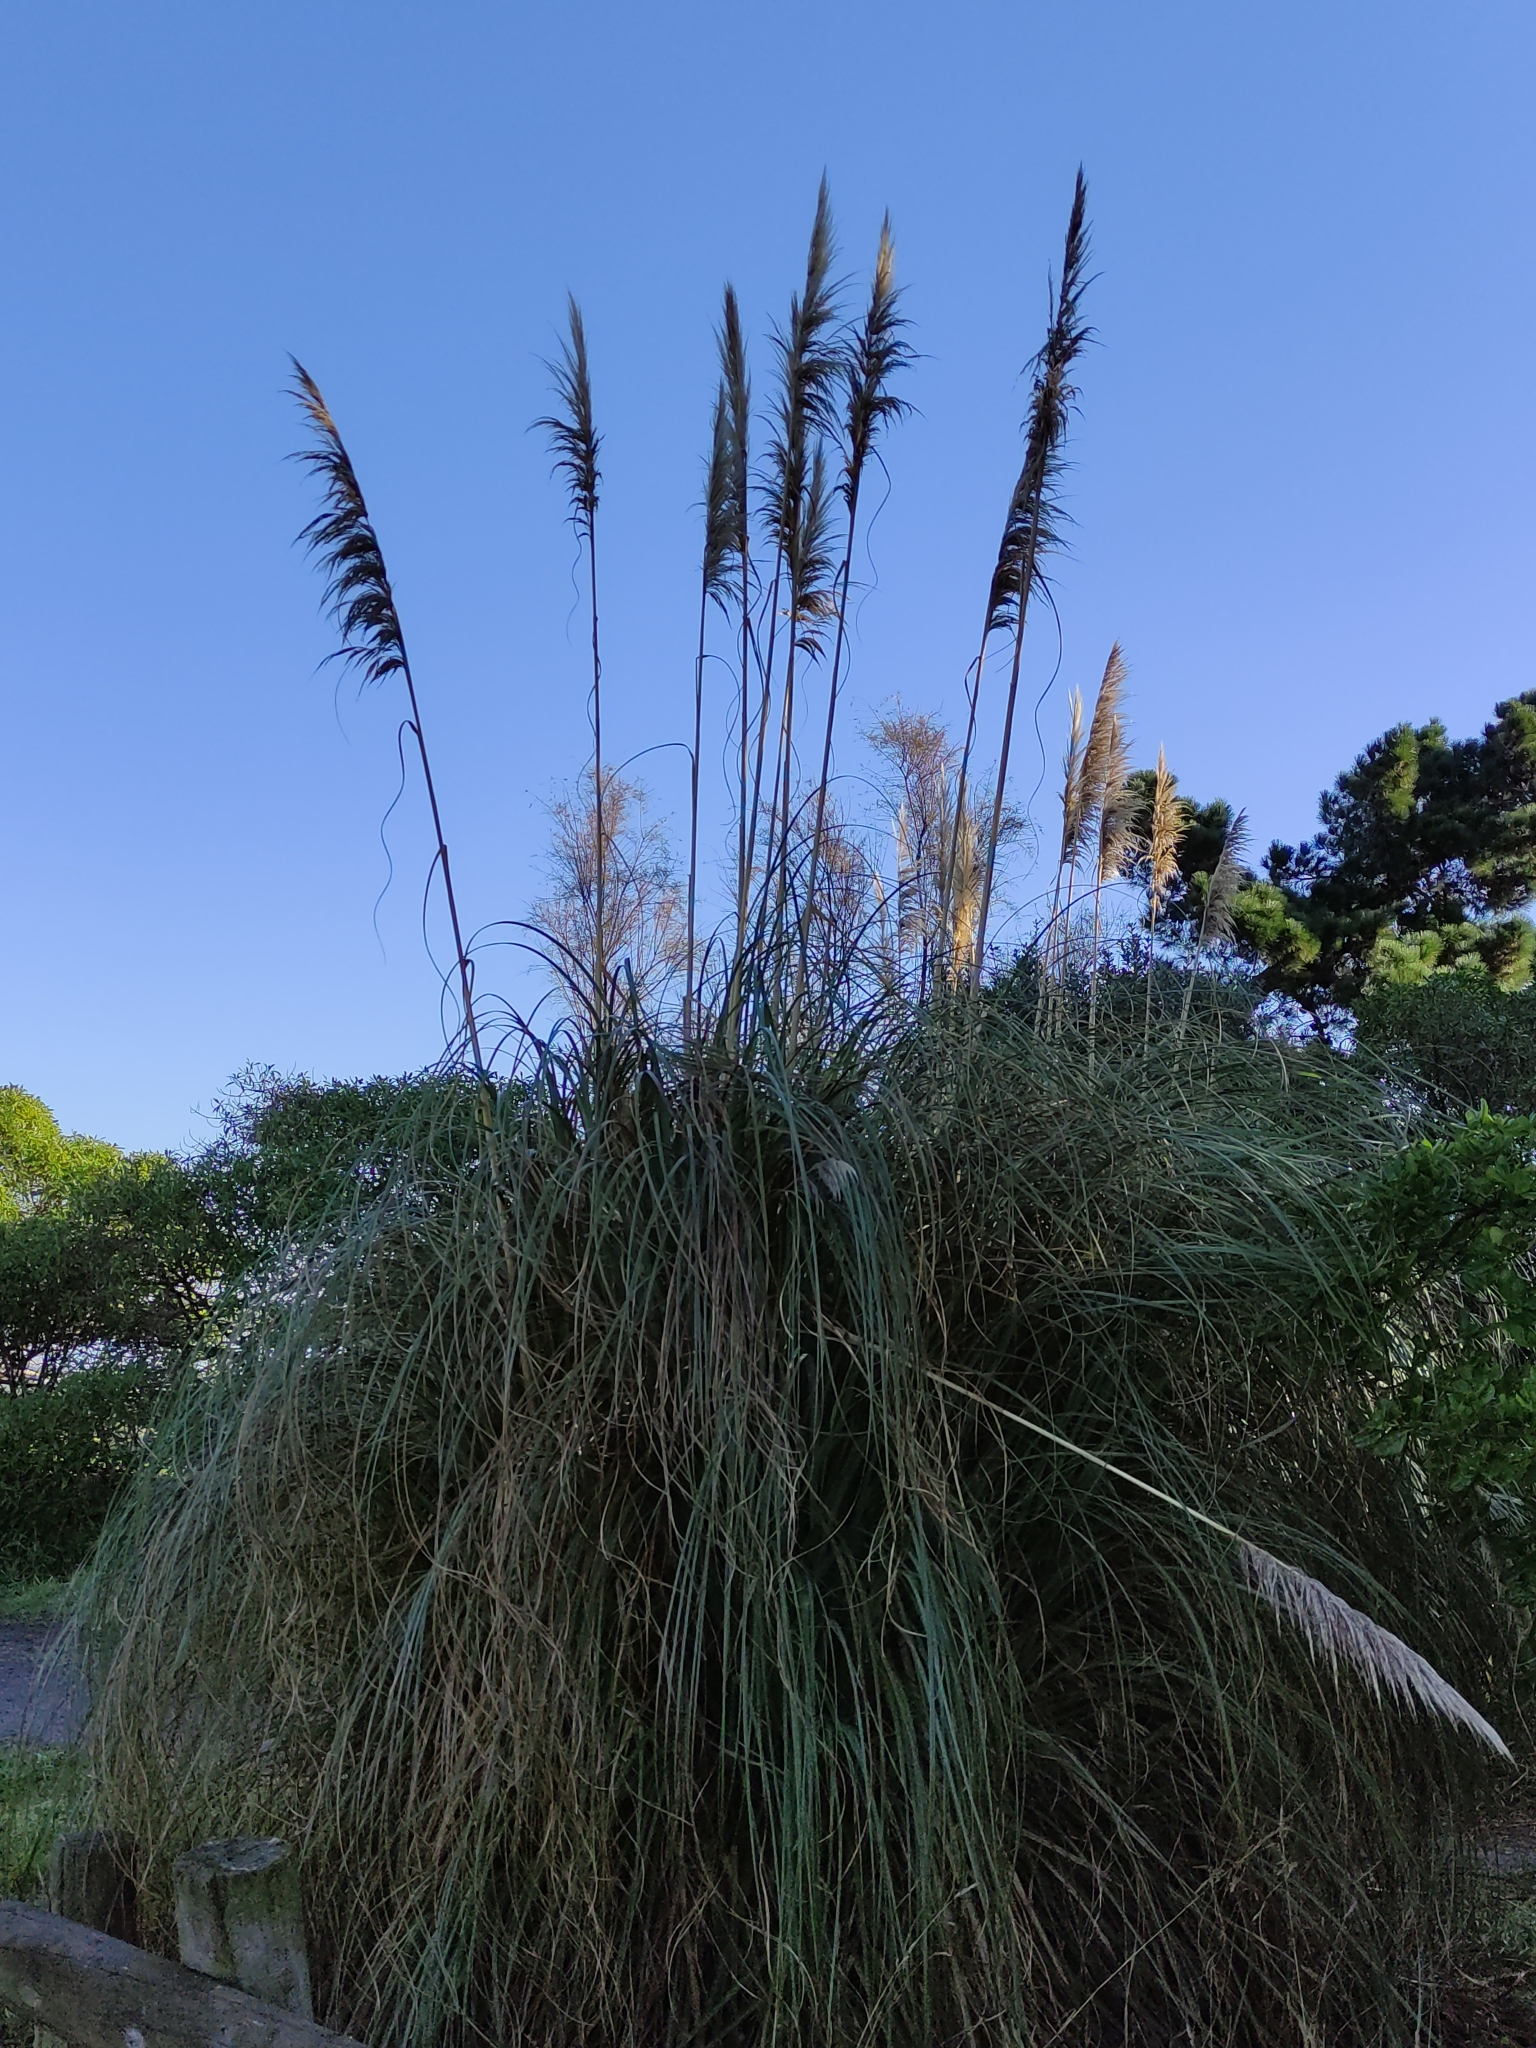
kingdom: Plantae
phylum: Tracheophyta
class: Liliopsida
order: Poales
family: Poaceae
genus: Austroderia
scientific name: Austroderia richardii
